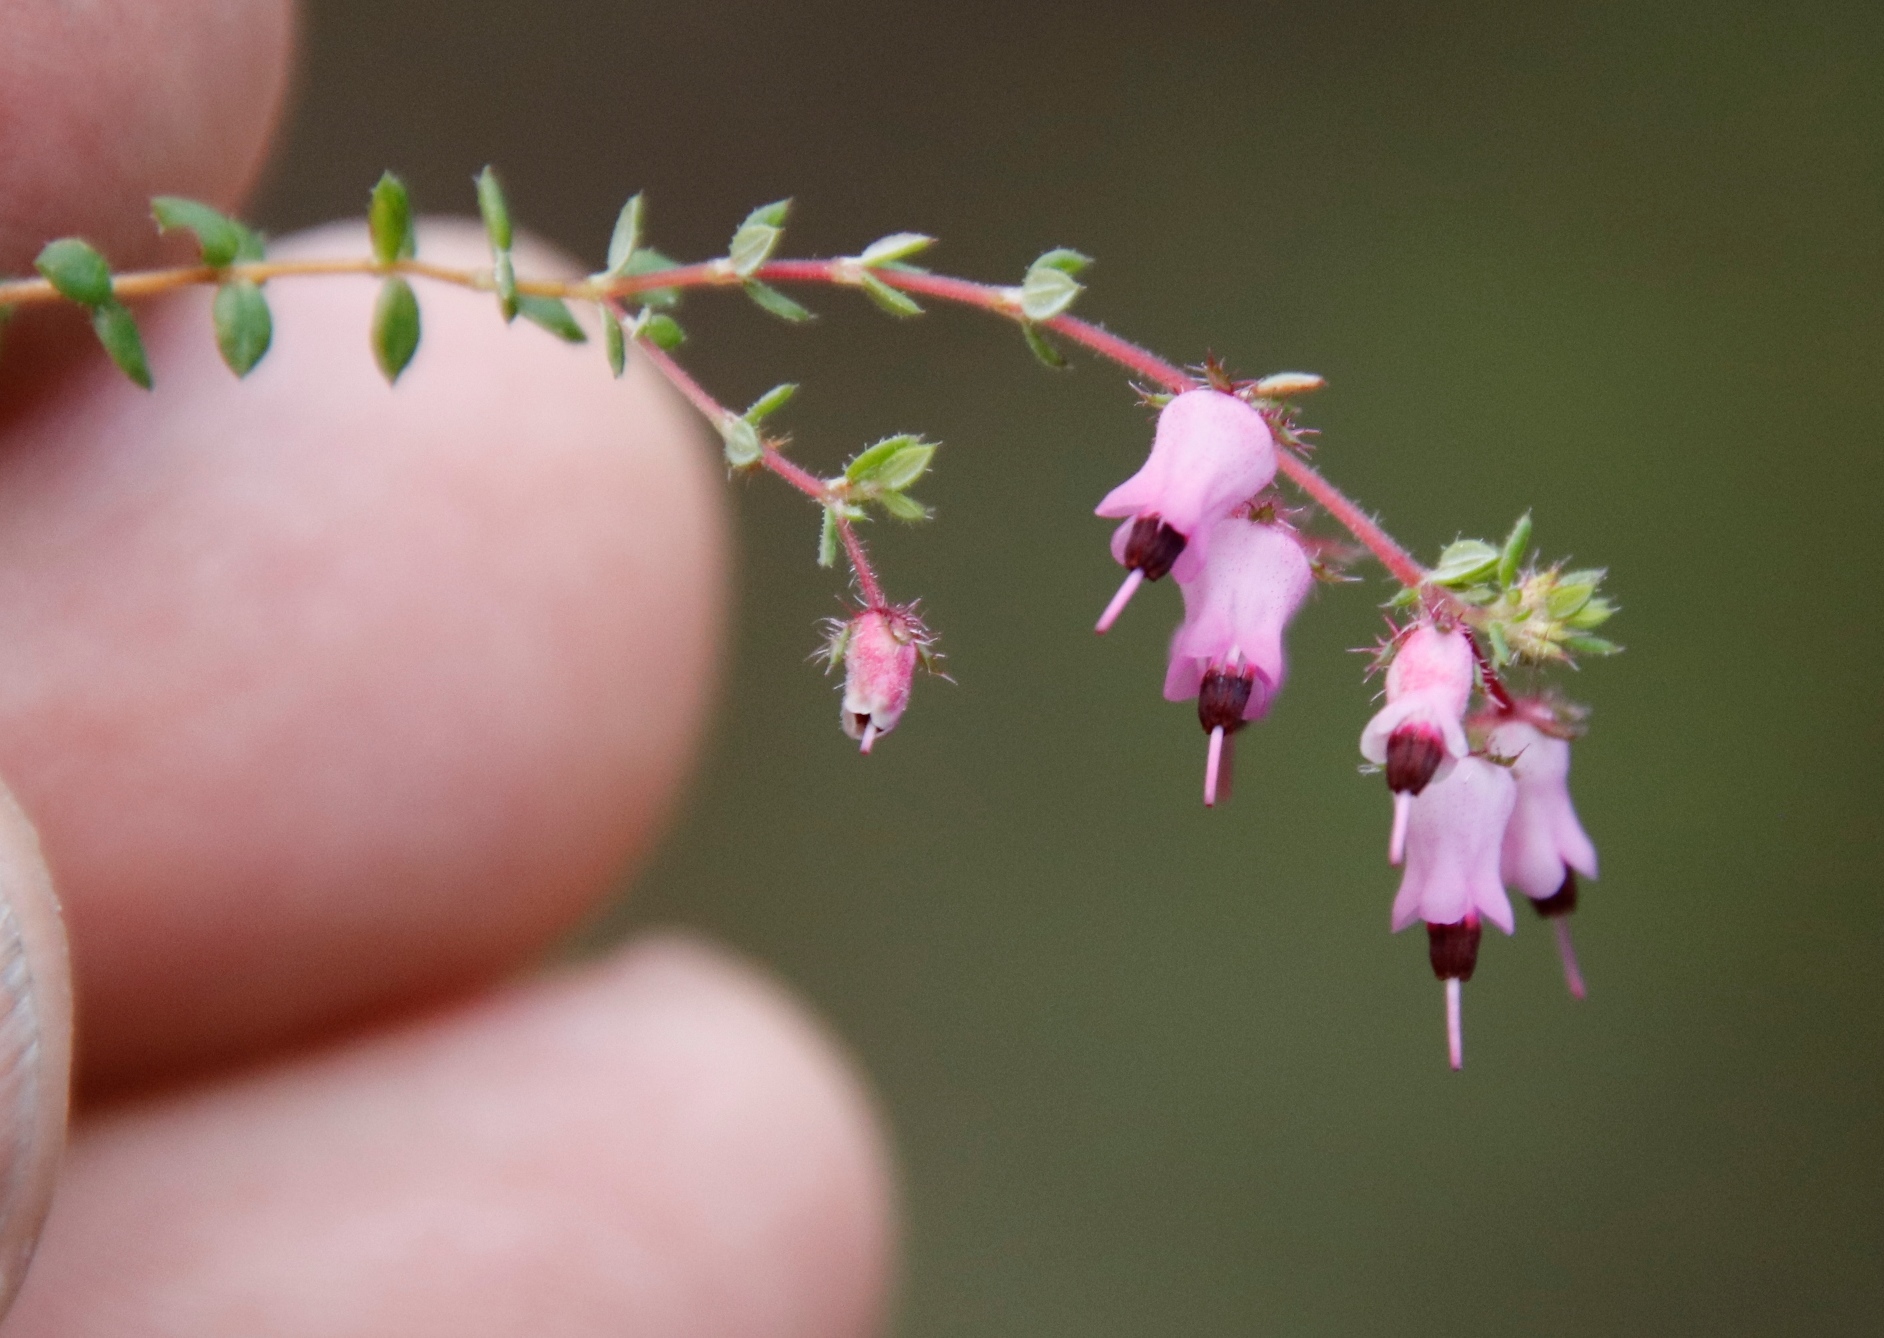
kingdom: Plantae
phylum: Tracheophyta
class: Magnoliopsida
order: Ericales
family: Ericaceae
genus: Erica
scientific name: Erica thimifolia
